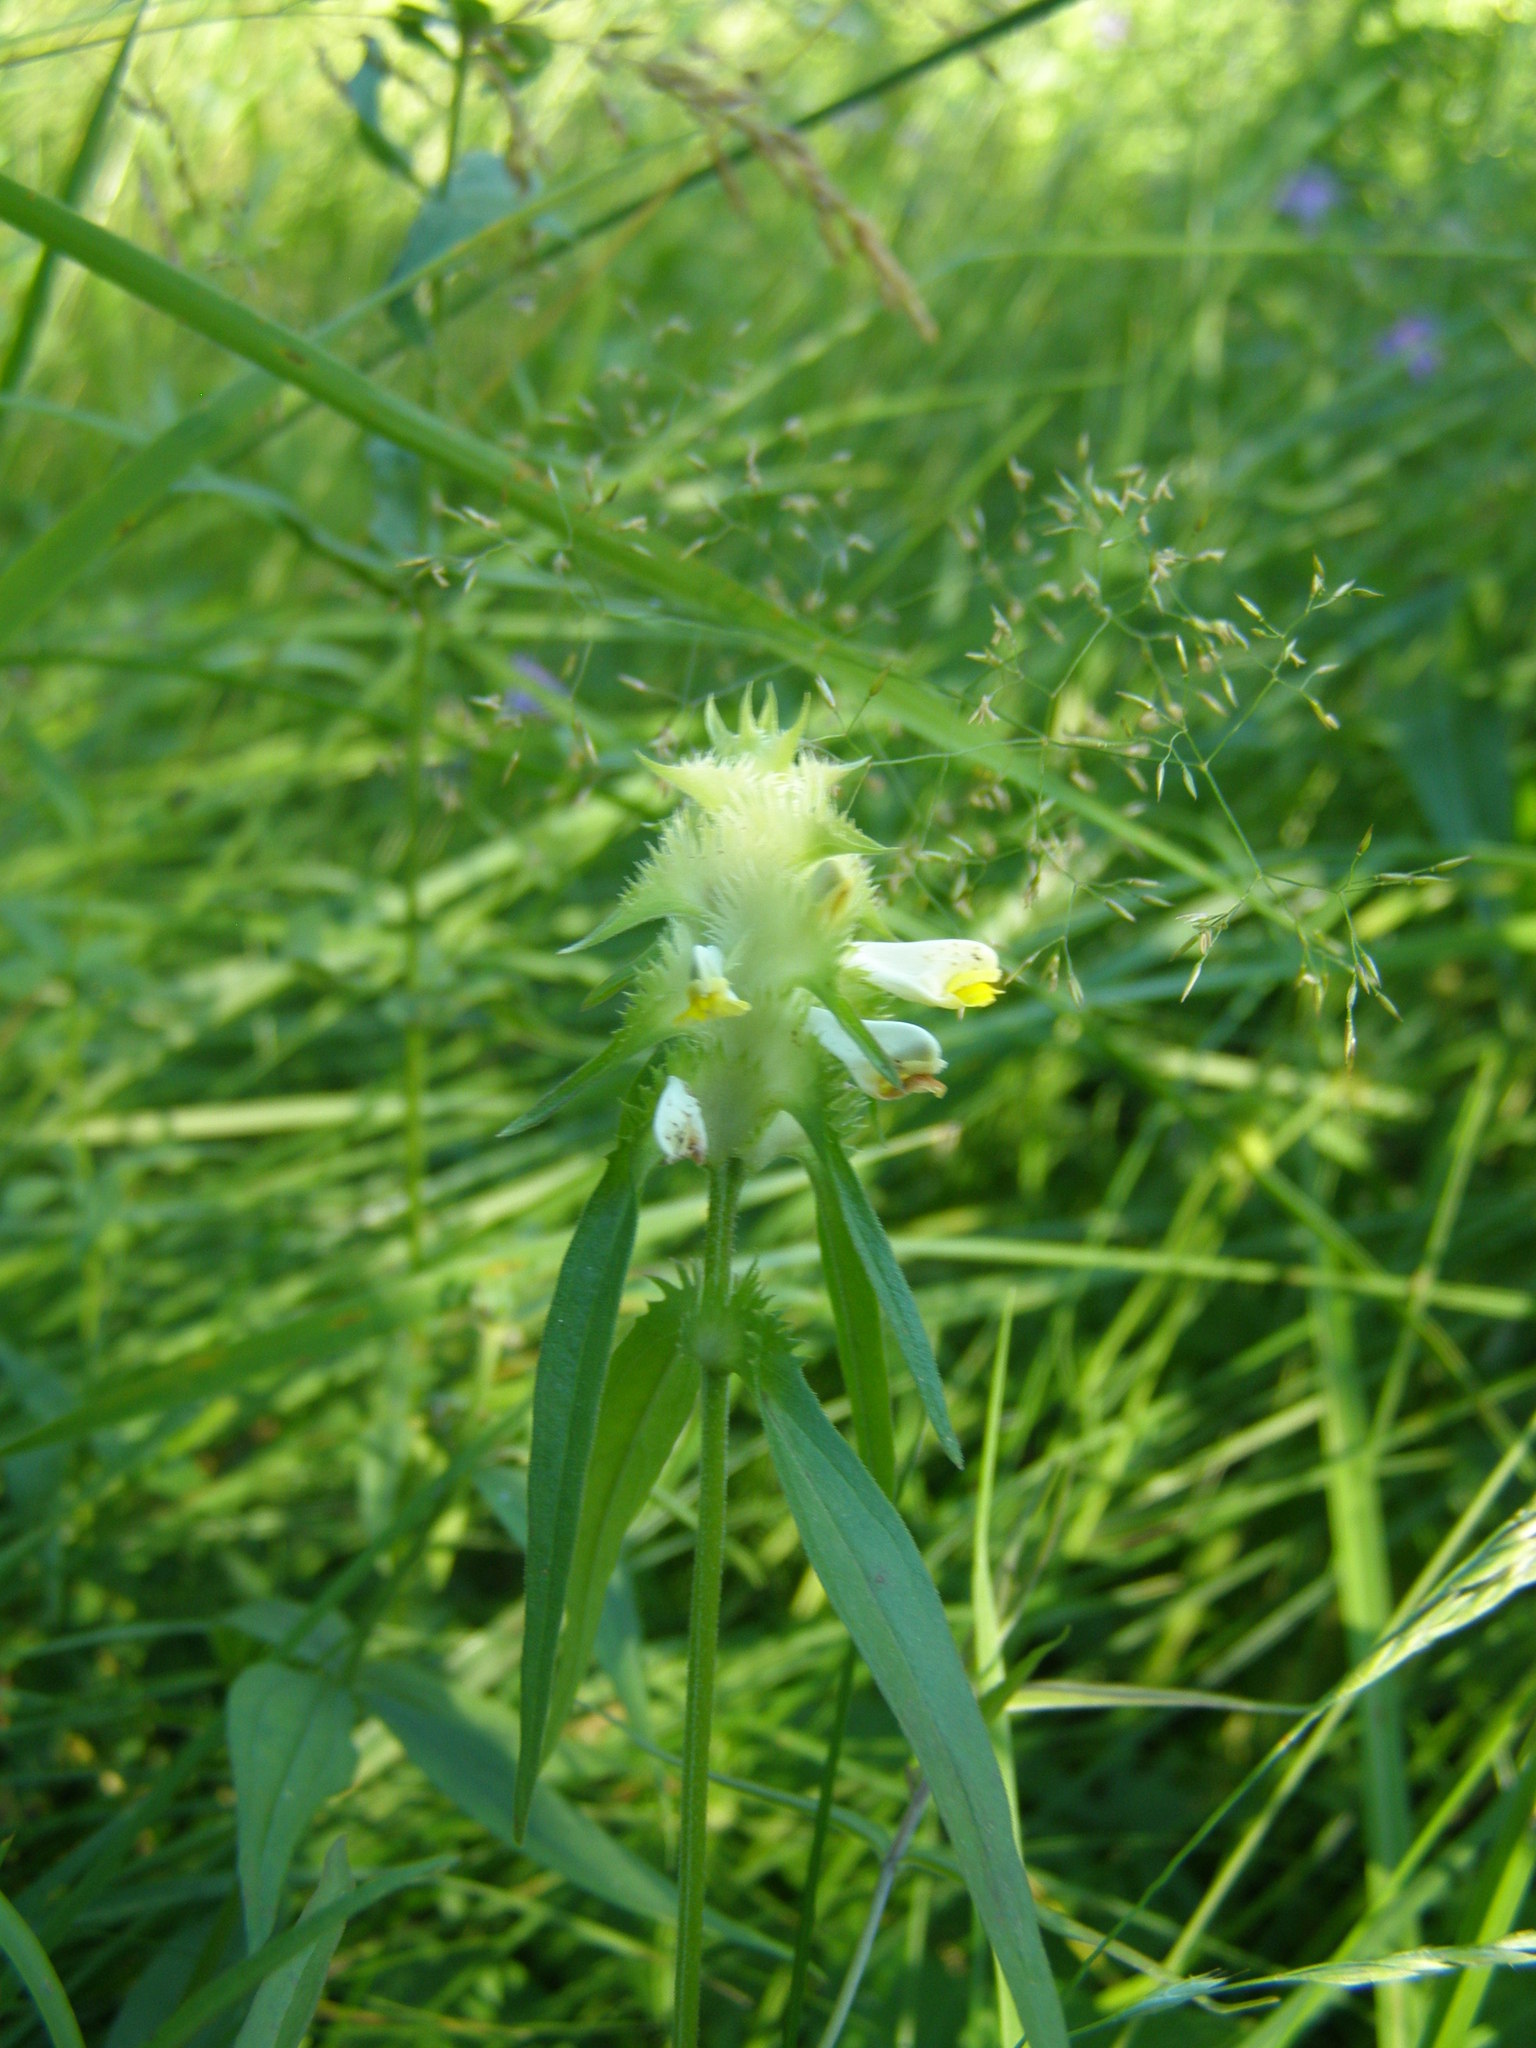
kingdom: Plantae
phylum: Tracheophyta
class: Magnoliopsida
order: Lamiales
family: Orobanchaceae
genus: Melampyrum
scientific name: Melampyrum cristatum
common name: Crested cow-wheat
